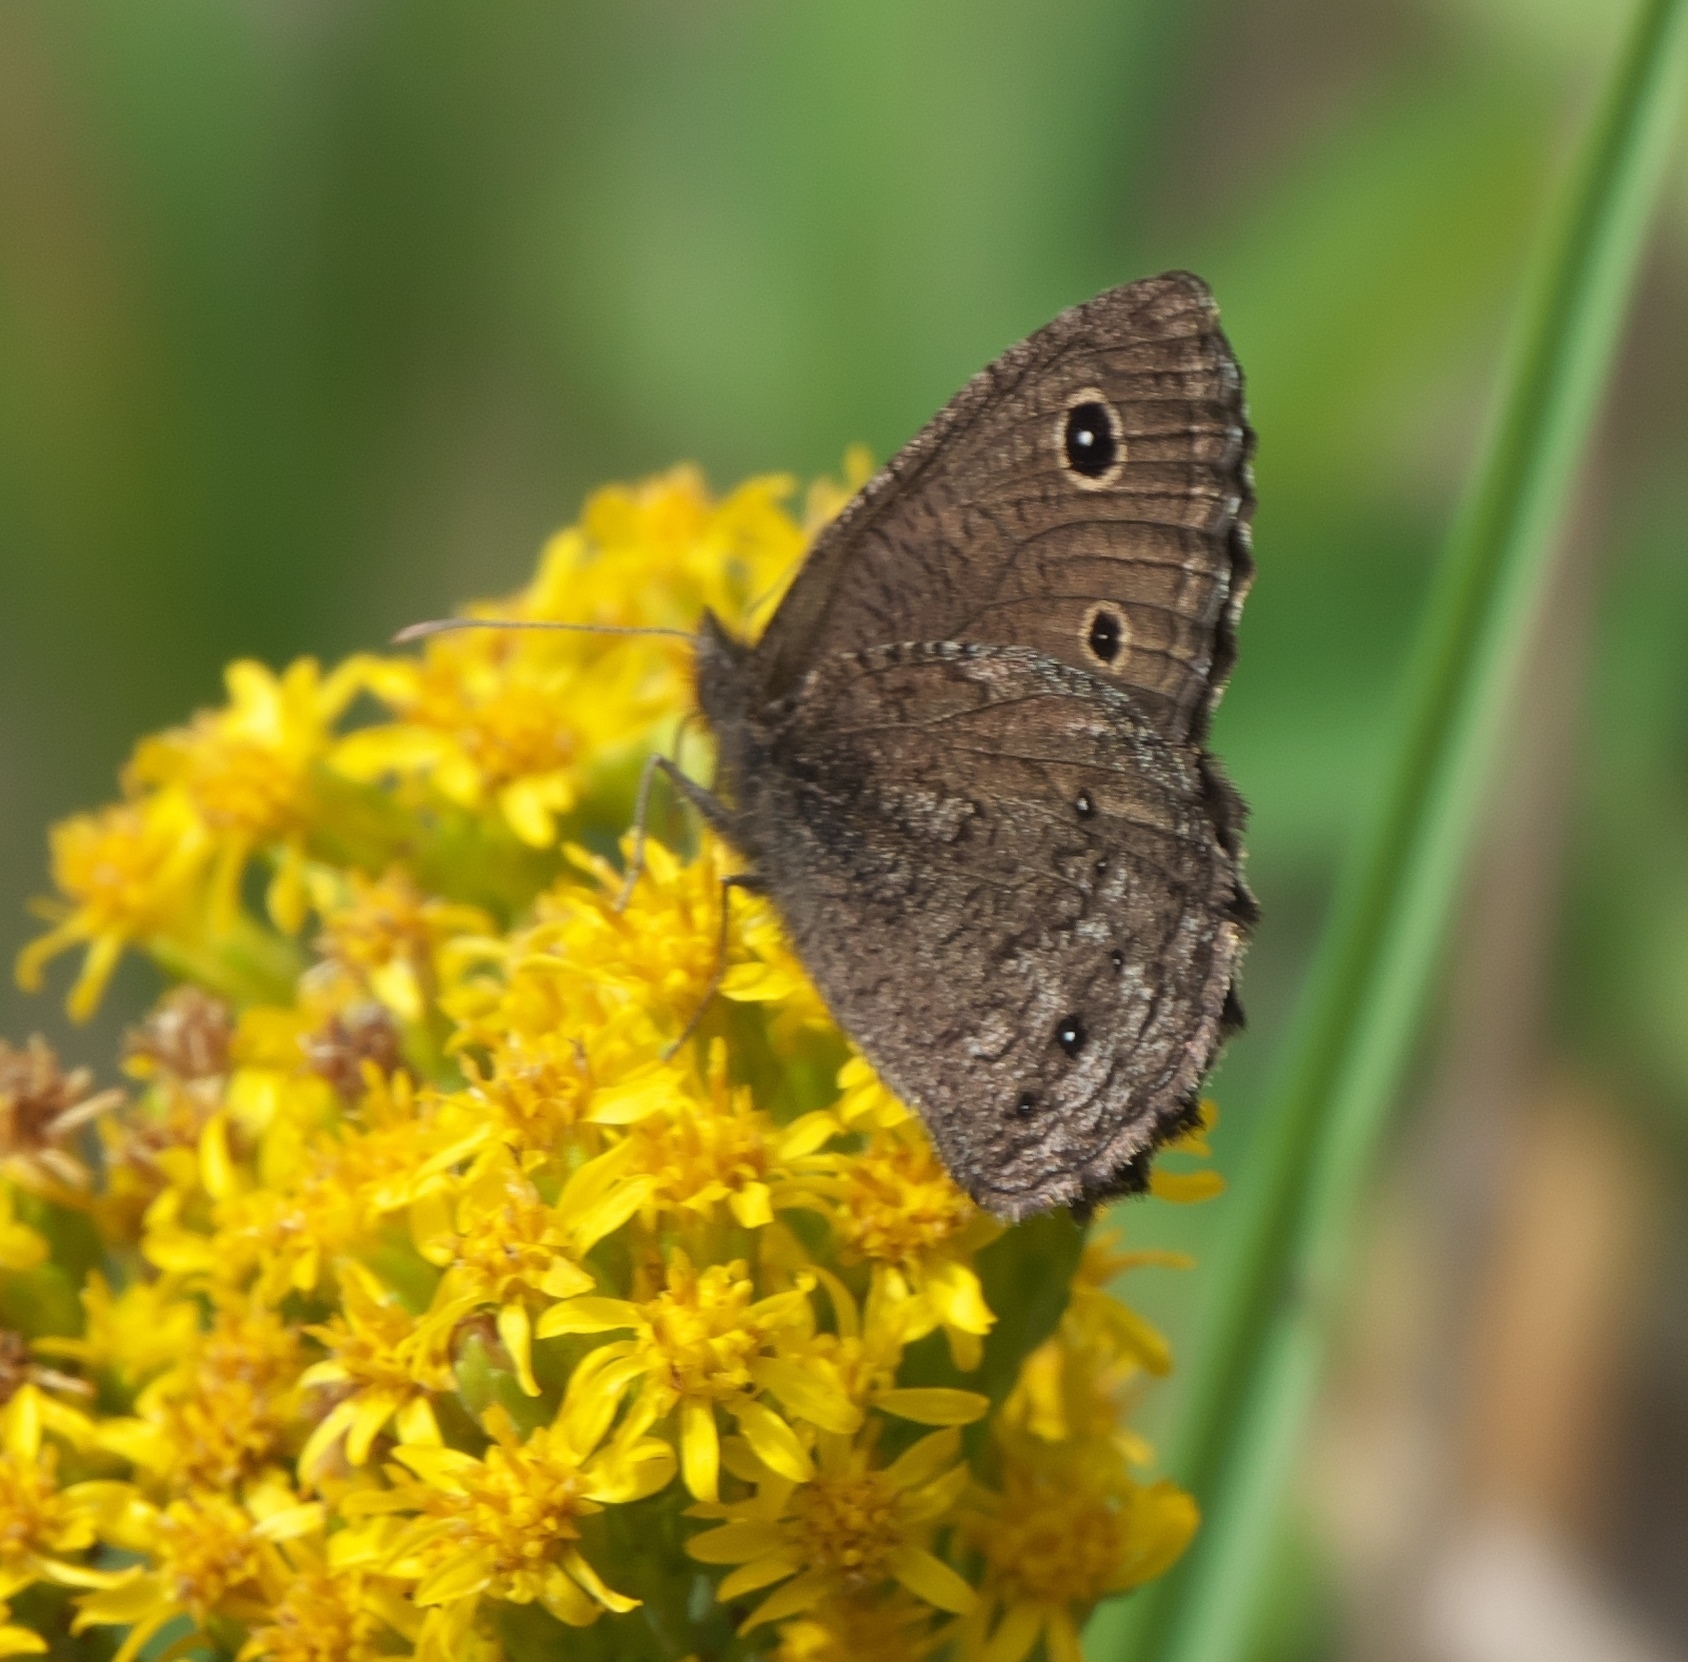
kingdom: Animalia
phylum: Arthropoda
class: Insecta
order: Lepidoptera
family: Nymphalidae
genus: Cercyonis
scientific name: Cercyonis oetus
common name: Small wood-nymph
